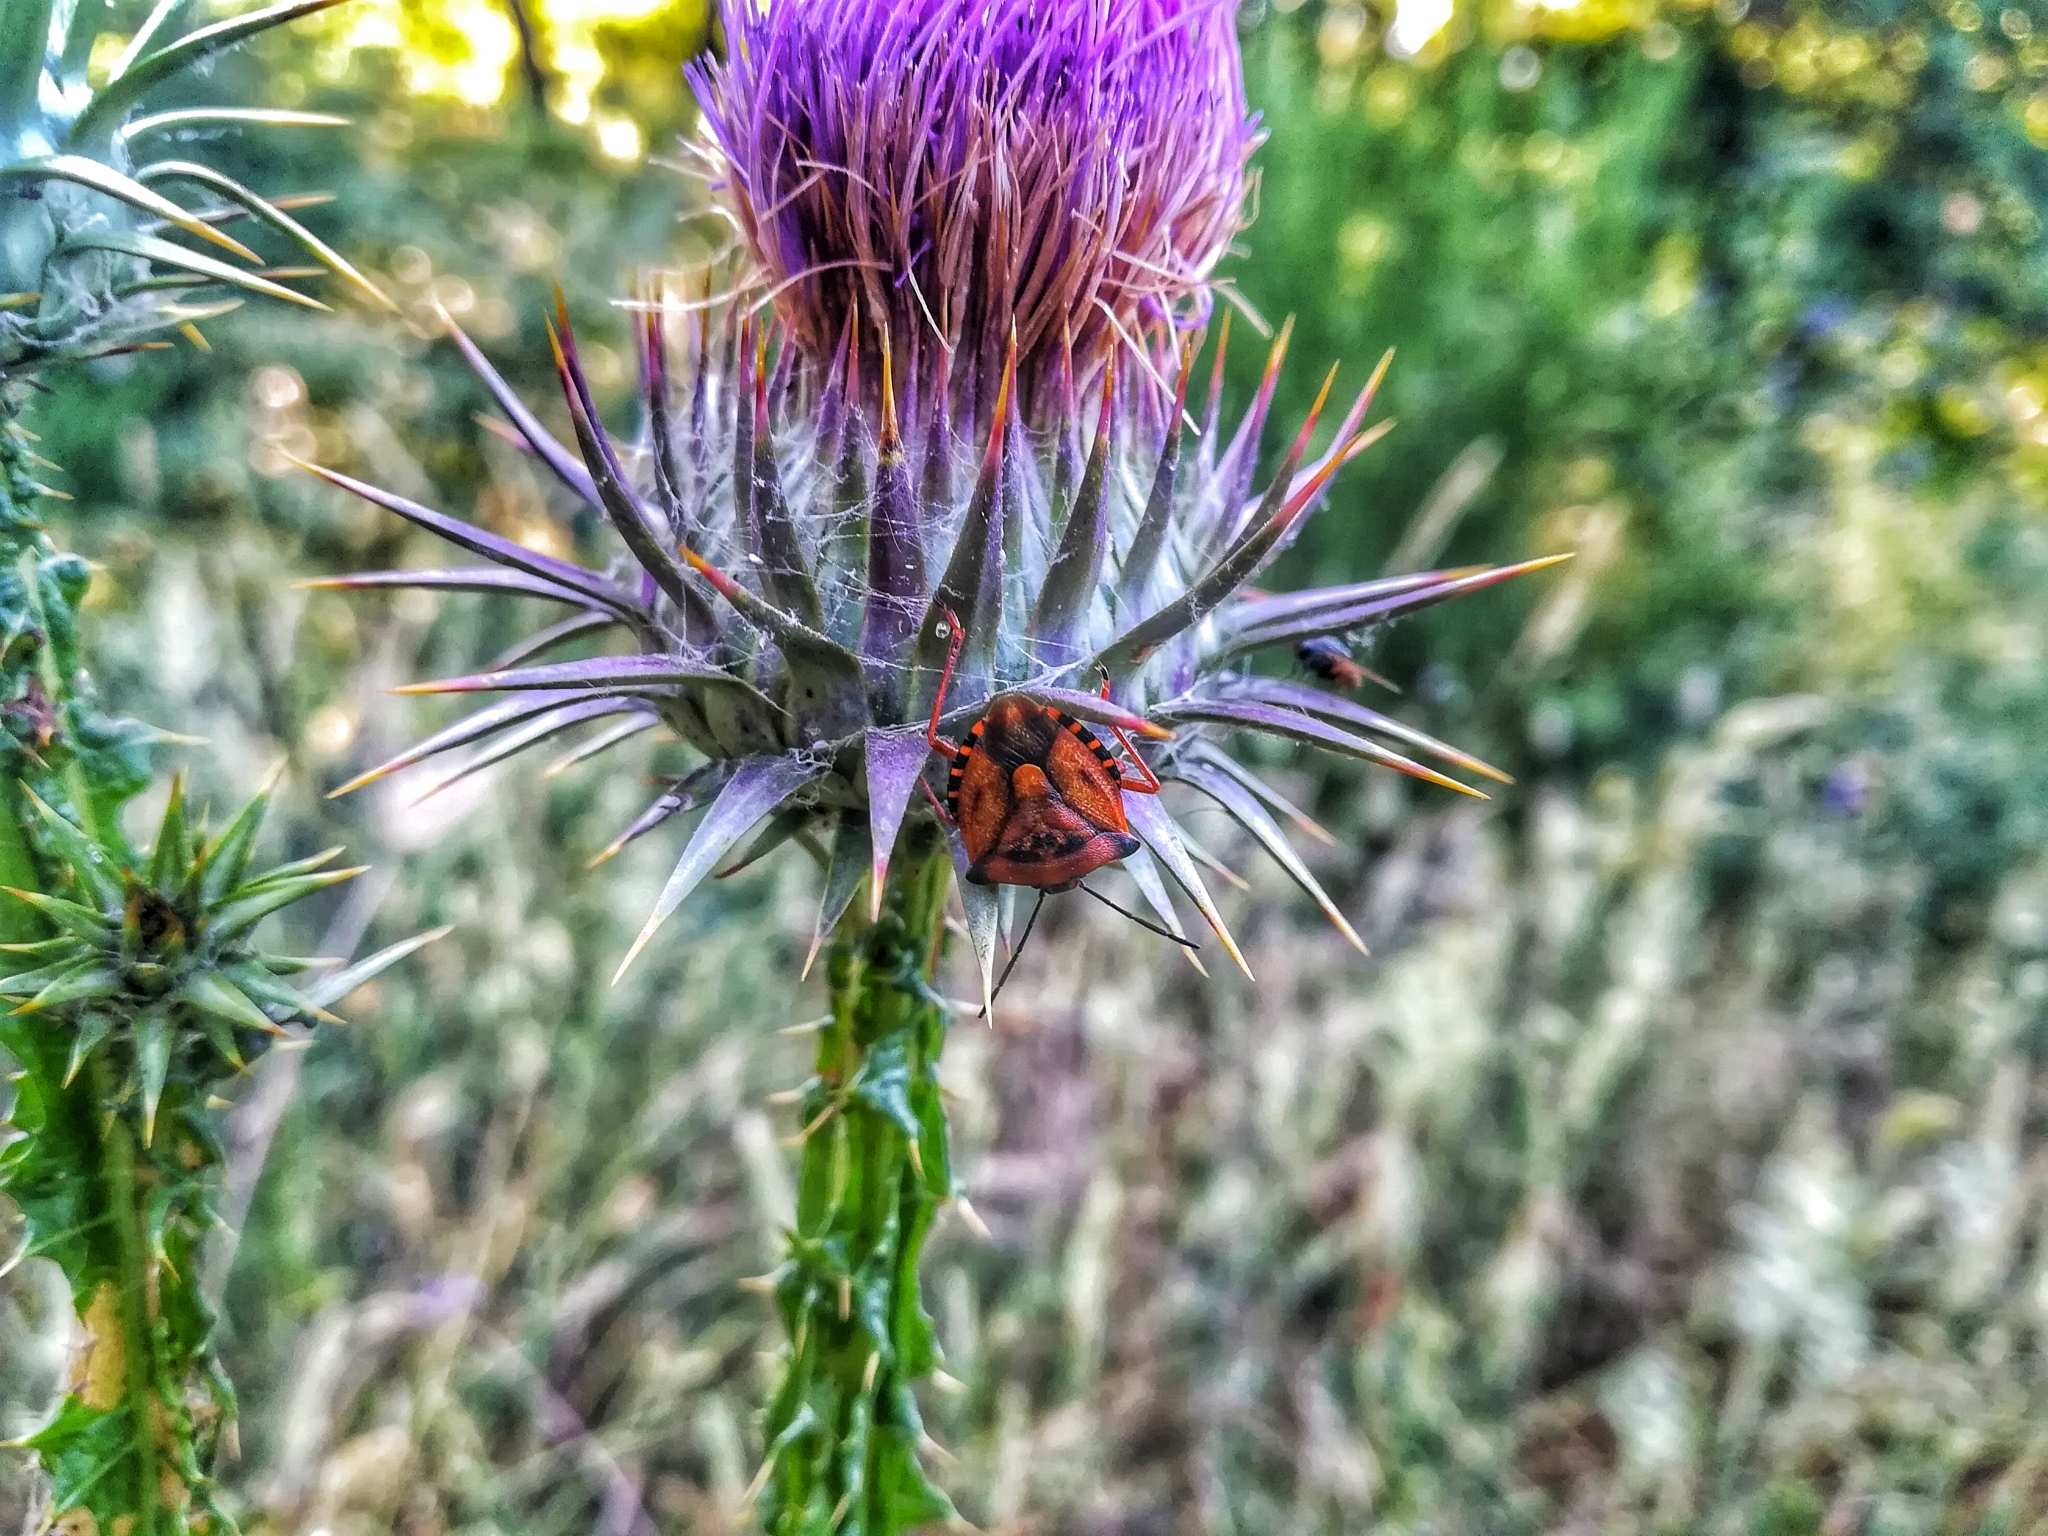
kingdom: Animalia
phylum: Arthropoda
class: Insecta
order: Hemiptera
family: Pentatomidae
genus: Carpocoris
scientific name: Carpocoris mediterraneus
